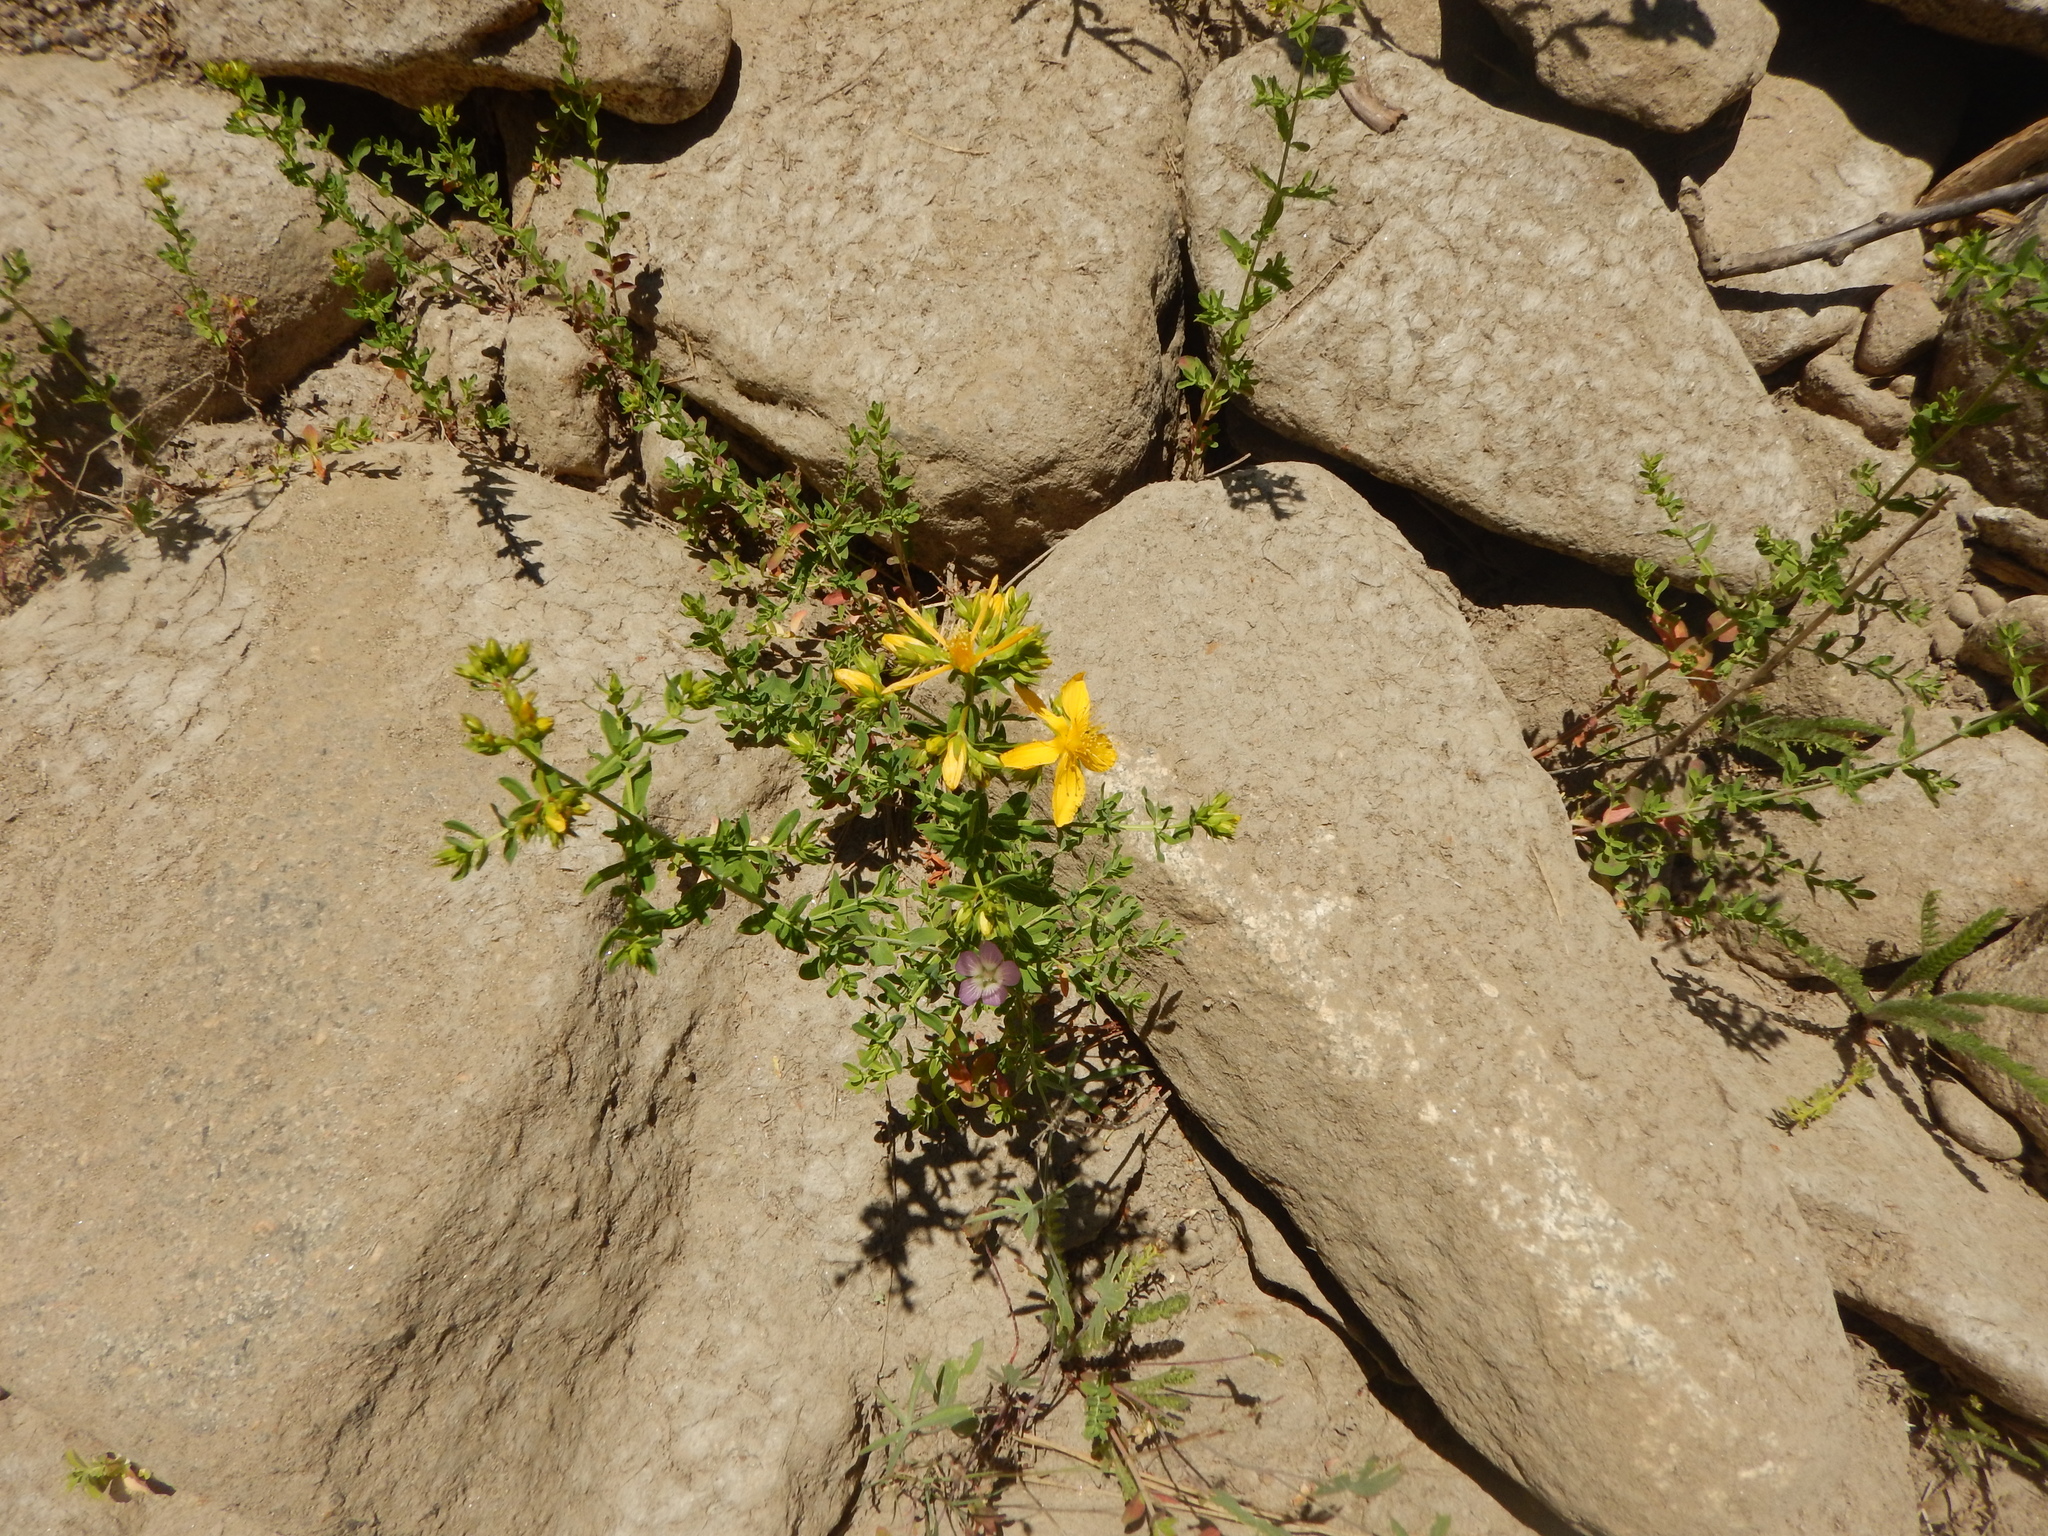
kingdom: Plantae
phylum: Tracheophyta
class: Magnoliopsida
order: Malpighiales
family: Hypericaceae
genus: Hypericum
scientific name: Hypericum perforatum
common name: Common st. johnswort
